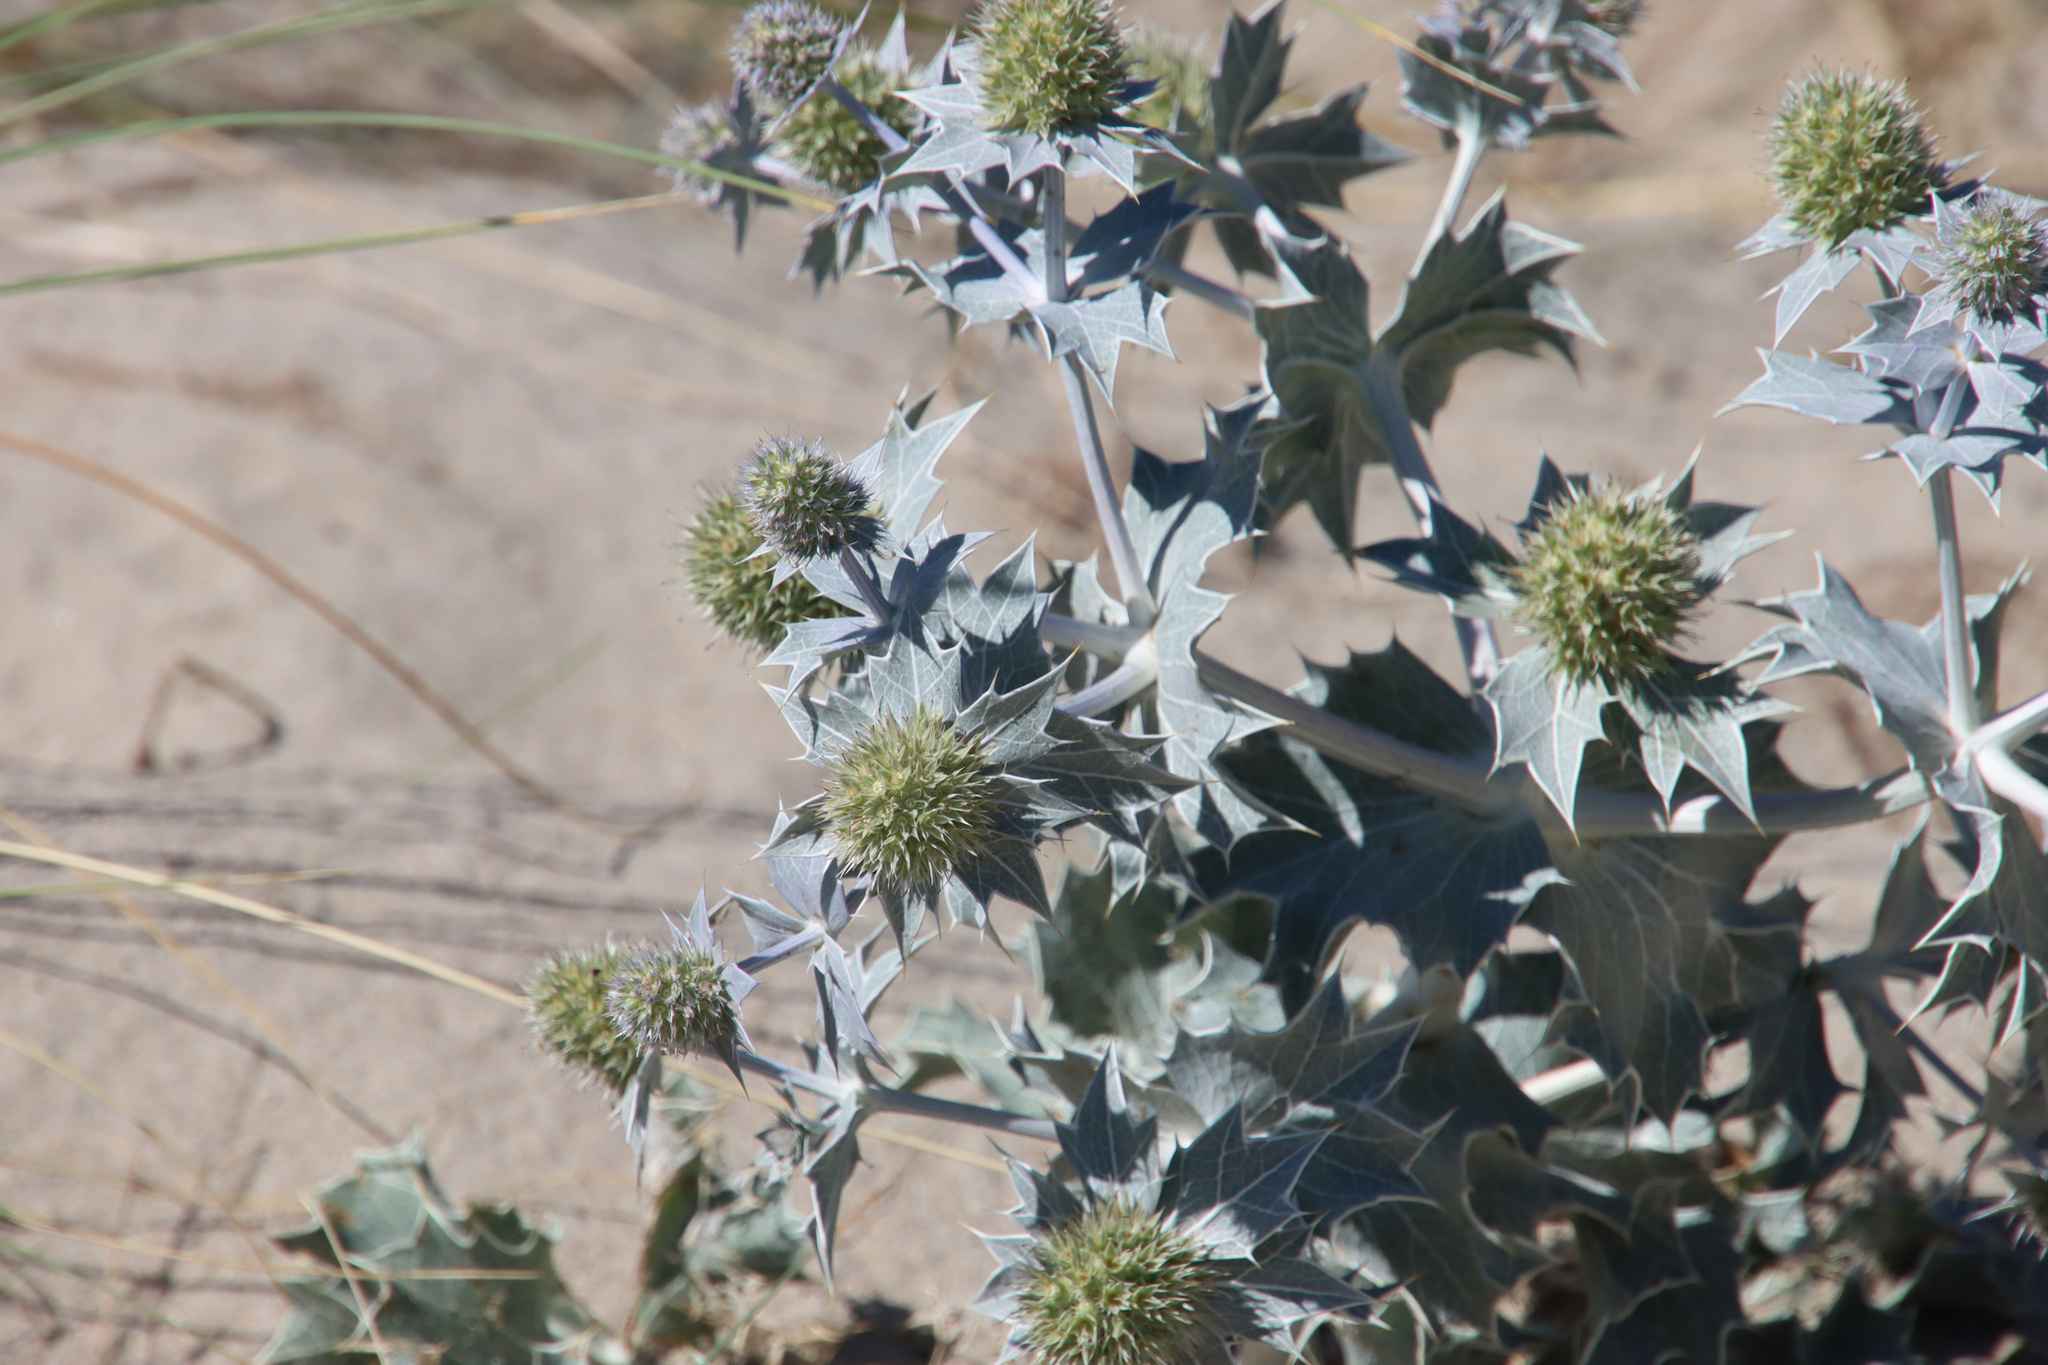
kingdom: Plantae
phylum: Tracheophyta
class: Magnoliopsida
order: Apiales
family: Apiaceae
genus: Eryngium
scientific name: Eryngium maritimum
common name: Sea-holly
